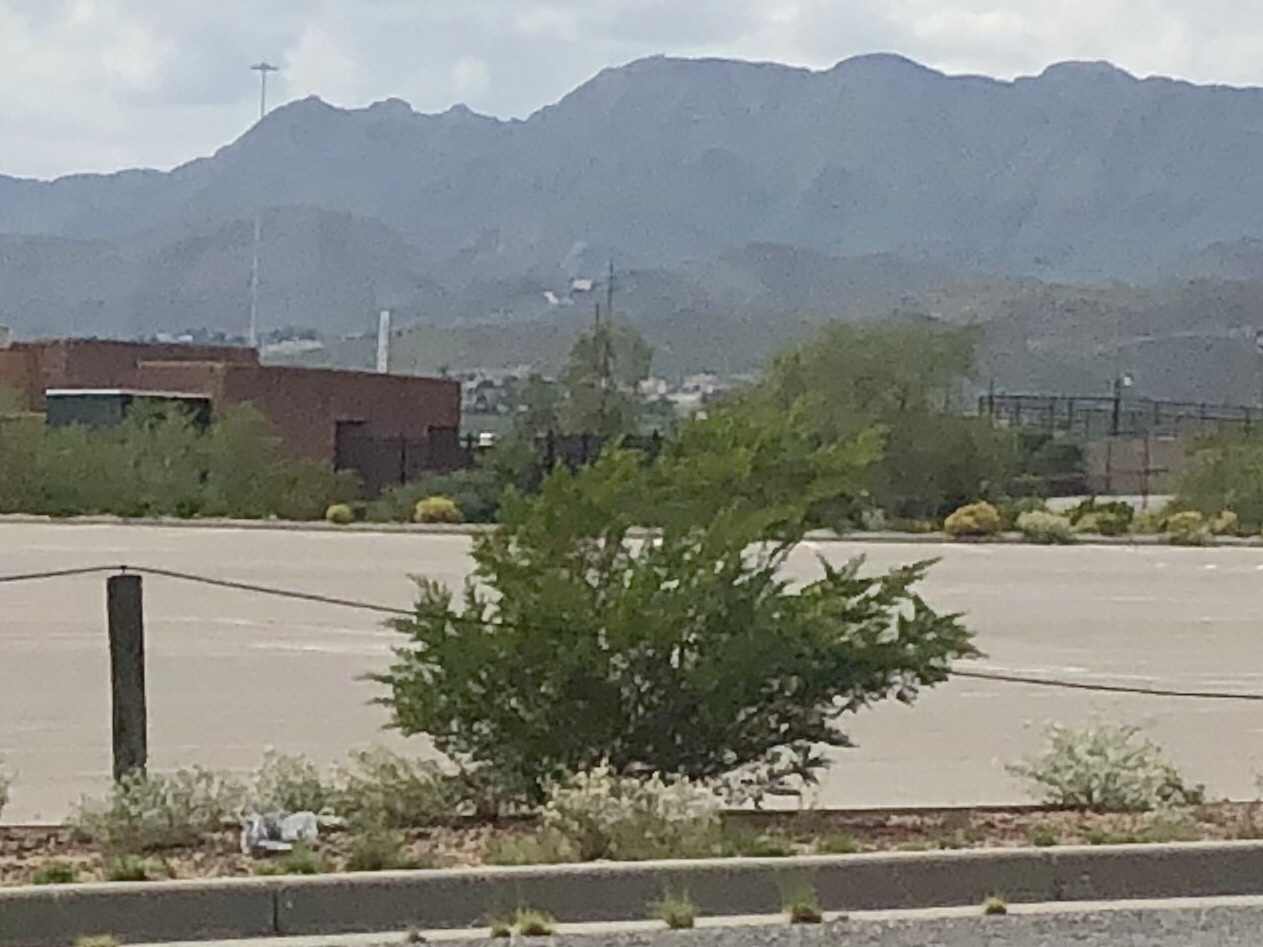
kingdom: Plantae
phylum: Tracheophyta
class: Magnoliopsida
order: Zygophyllales
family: Zygophyllaceae
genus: Larrea
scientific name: Larrea tridentata
